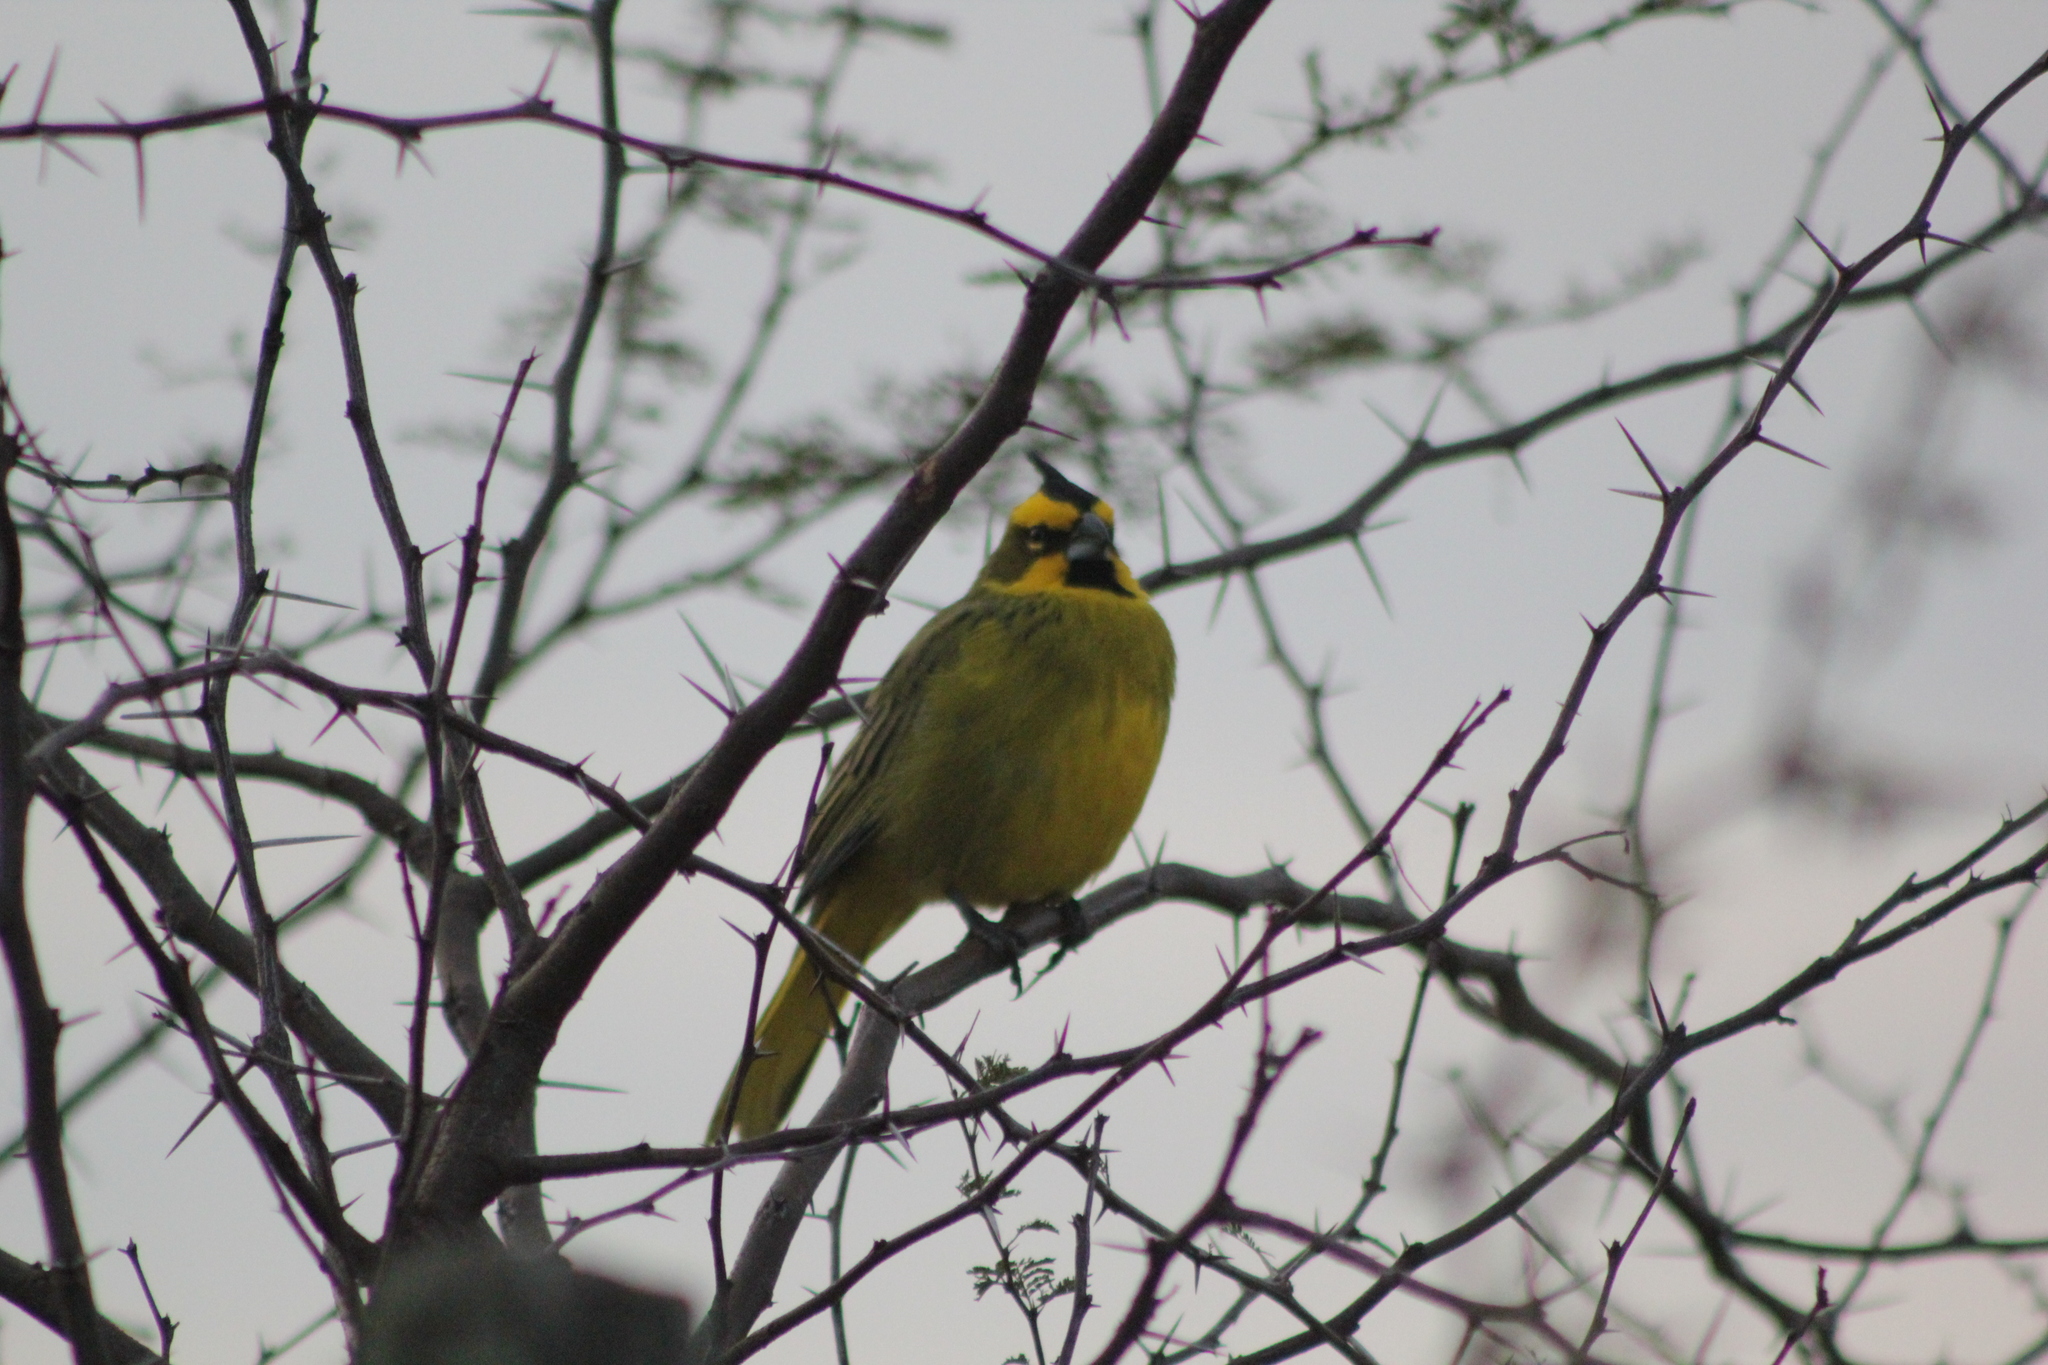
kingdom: Animalia
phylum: Chordata
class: Aves
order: Passeriformes
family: Thraupidae
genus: Gubernatrix
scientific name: Gubernatrix cristata
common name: Yellow cardinal
